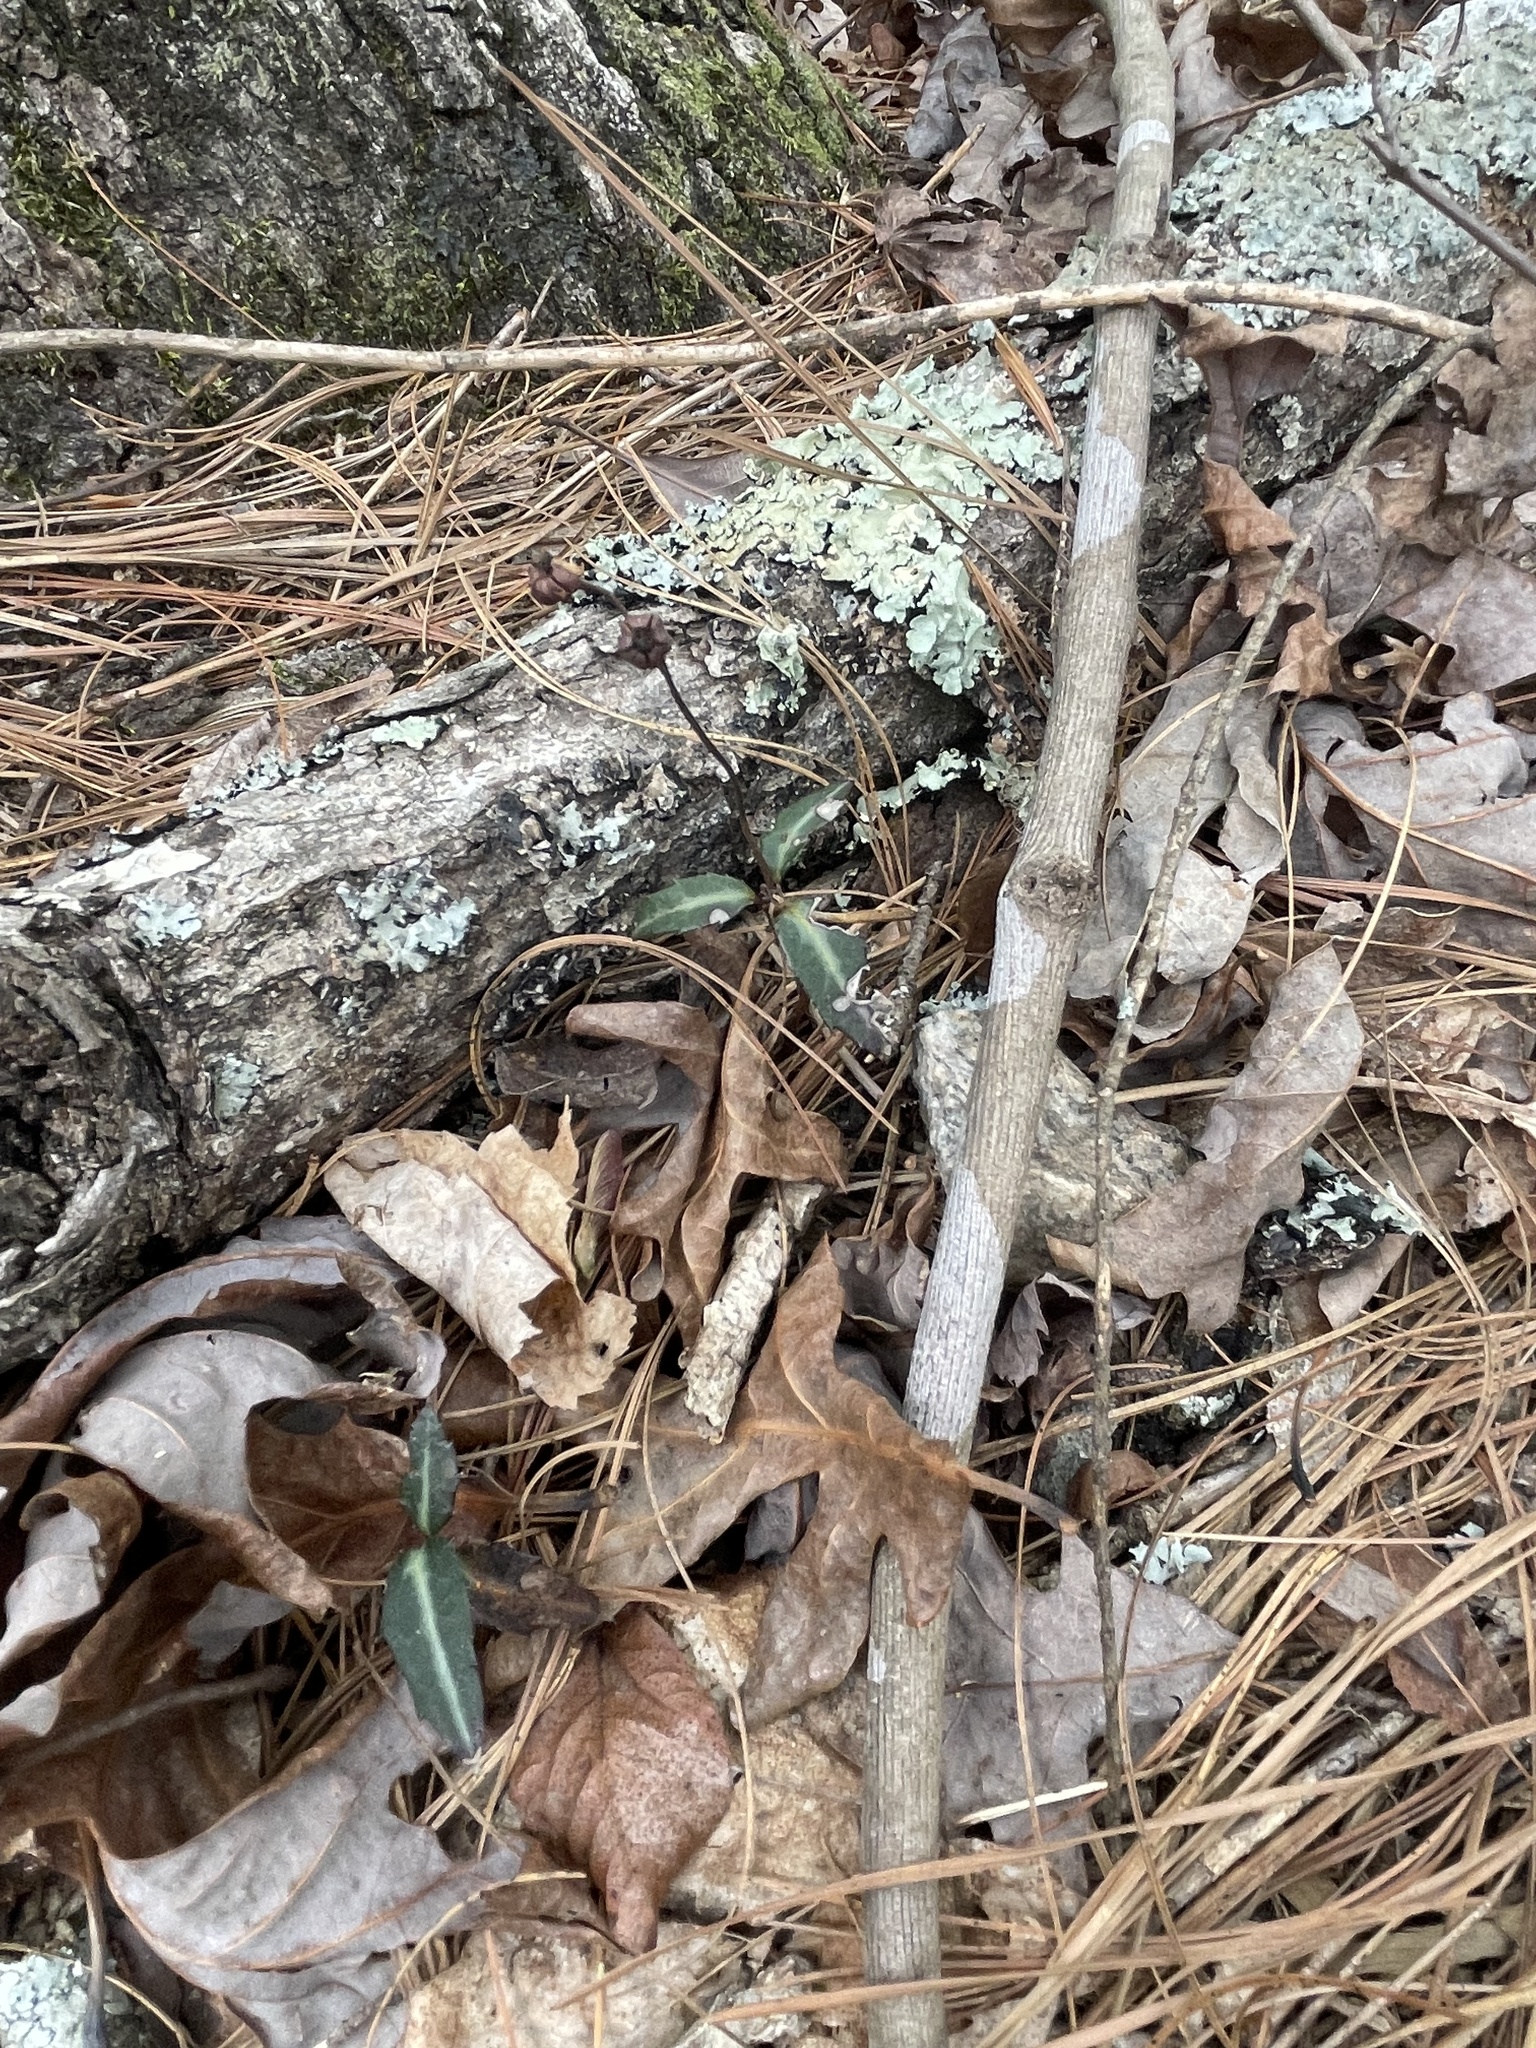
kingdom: Plantae
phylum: Tracheophyta
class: Magnoliopsida
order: Ericales
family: Ericaceae
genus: Chimaphila
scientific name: Chimaphila maculata
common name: Spotted pipsissewa
